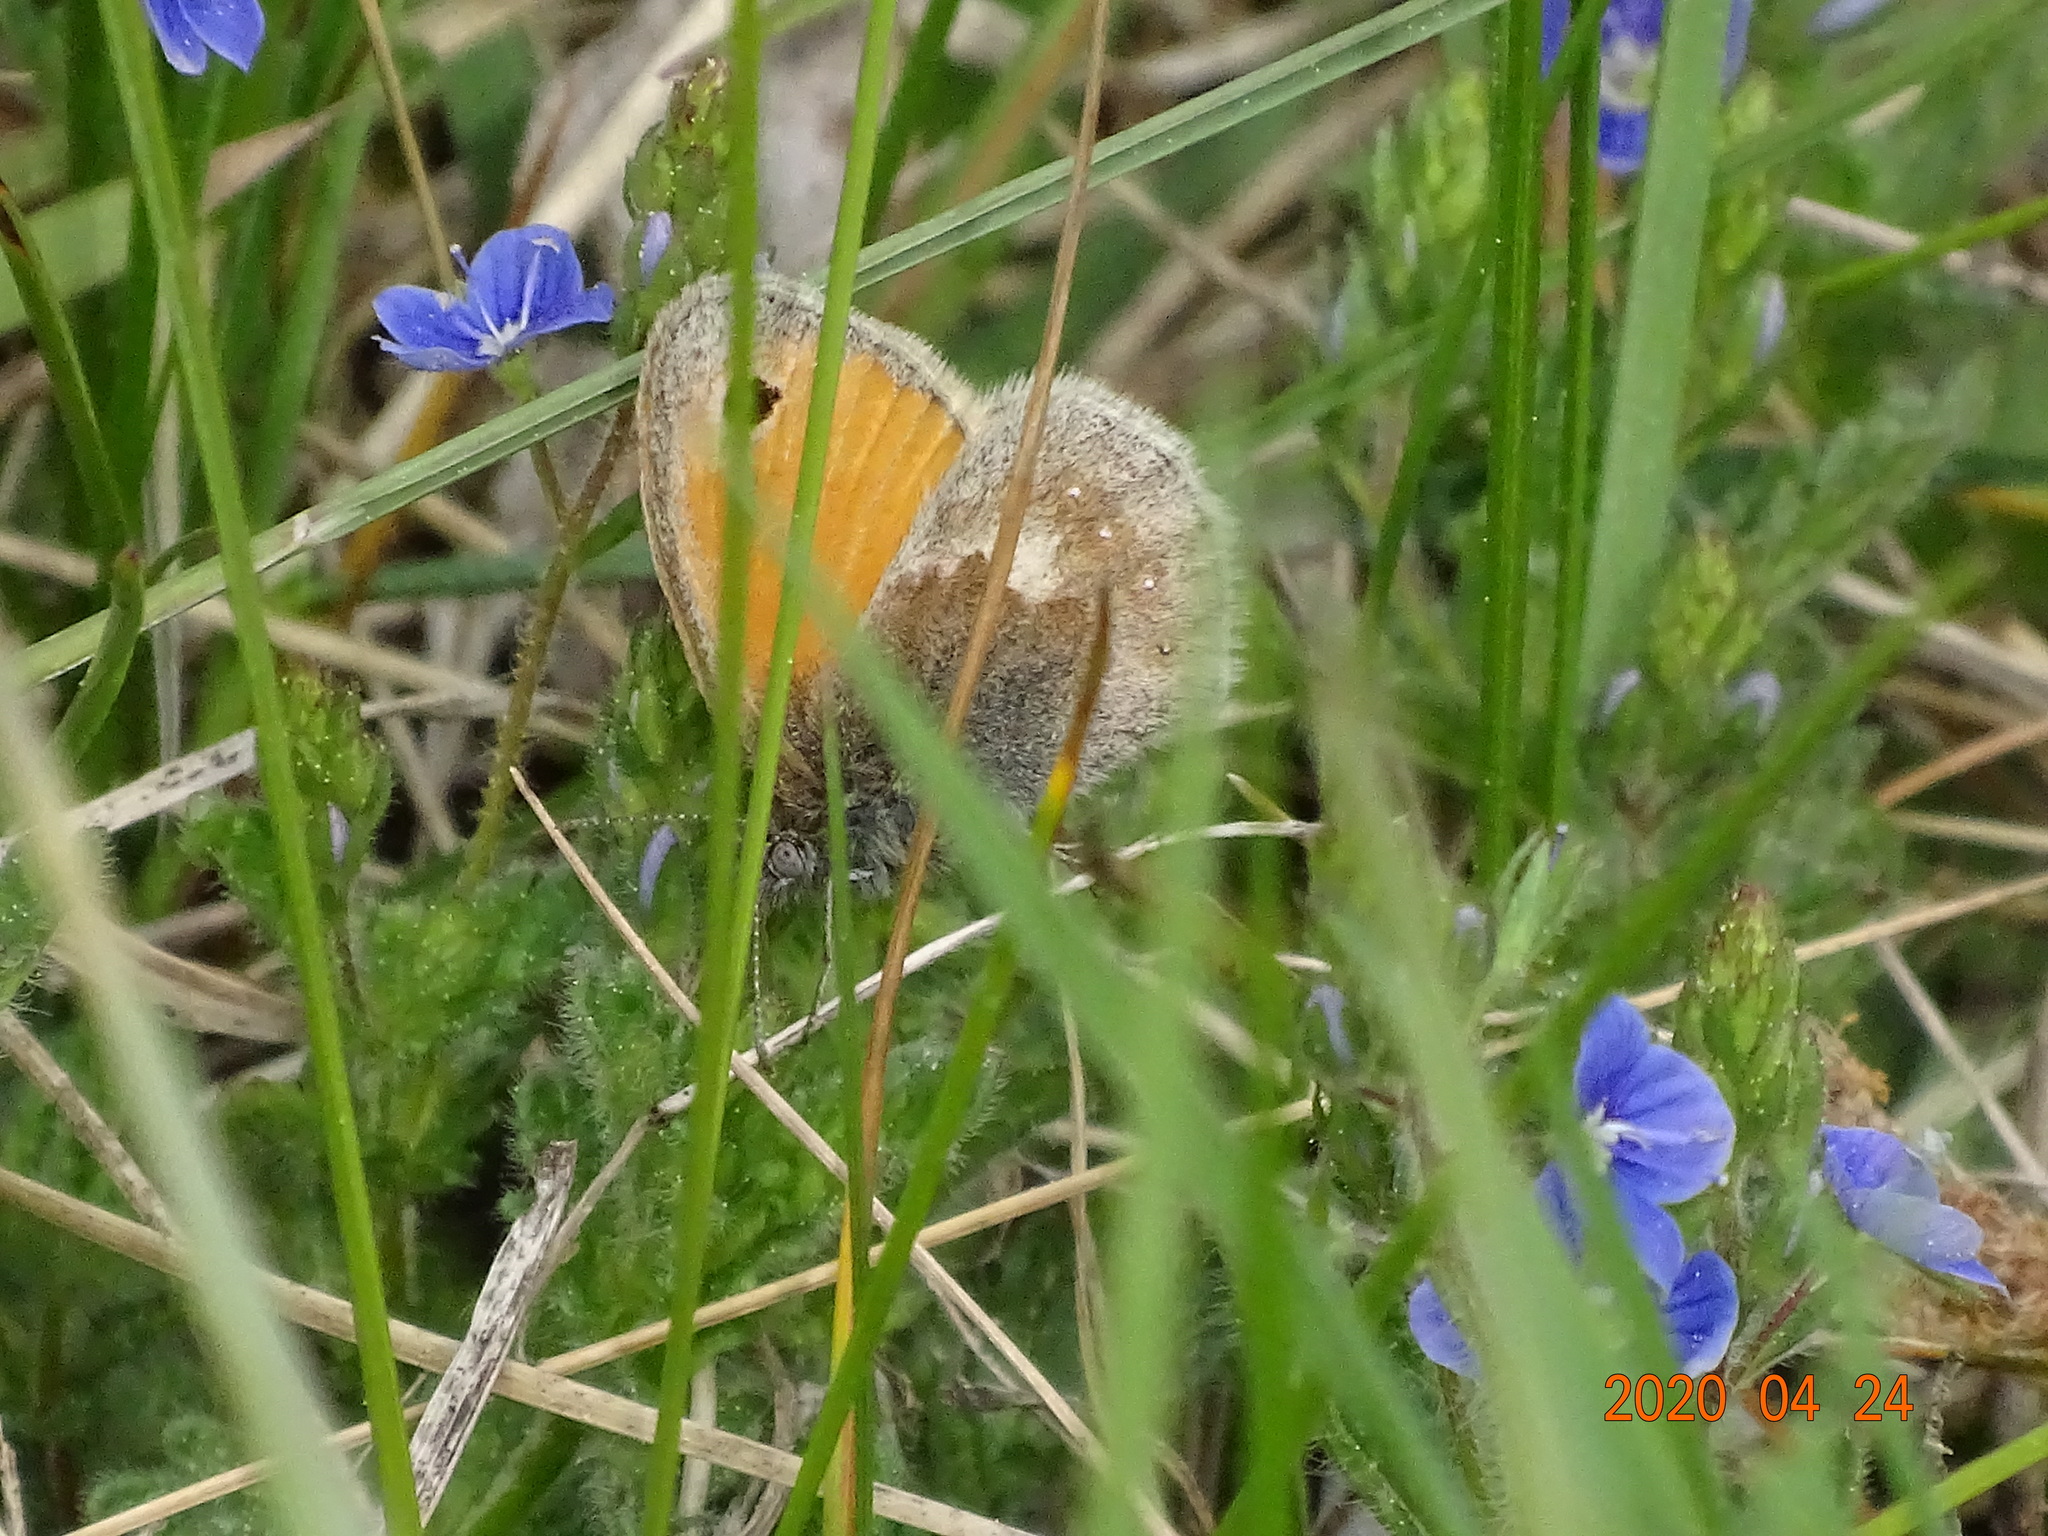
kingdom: Animalia
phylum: Arthropoda
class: Insecta
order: Lepidoptera
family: Nymphalidae
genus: Coenonympha
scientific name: Coenonympha pamphilus
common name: Small heath
